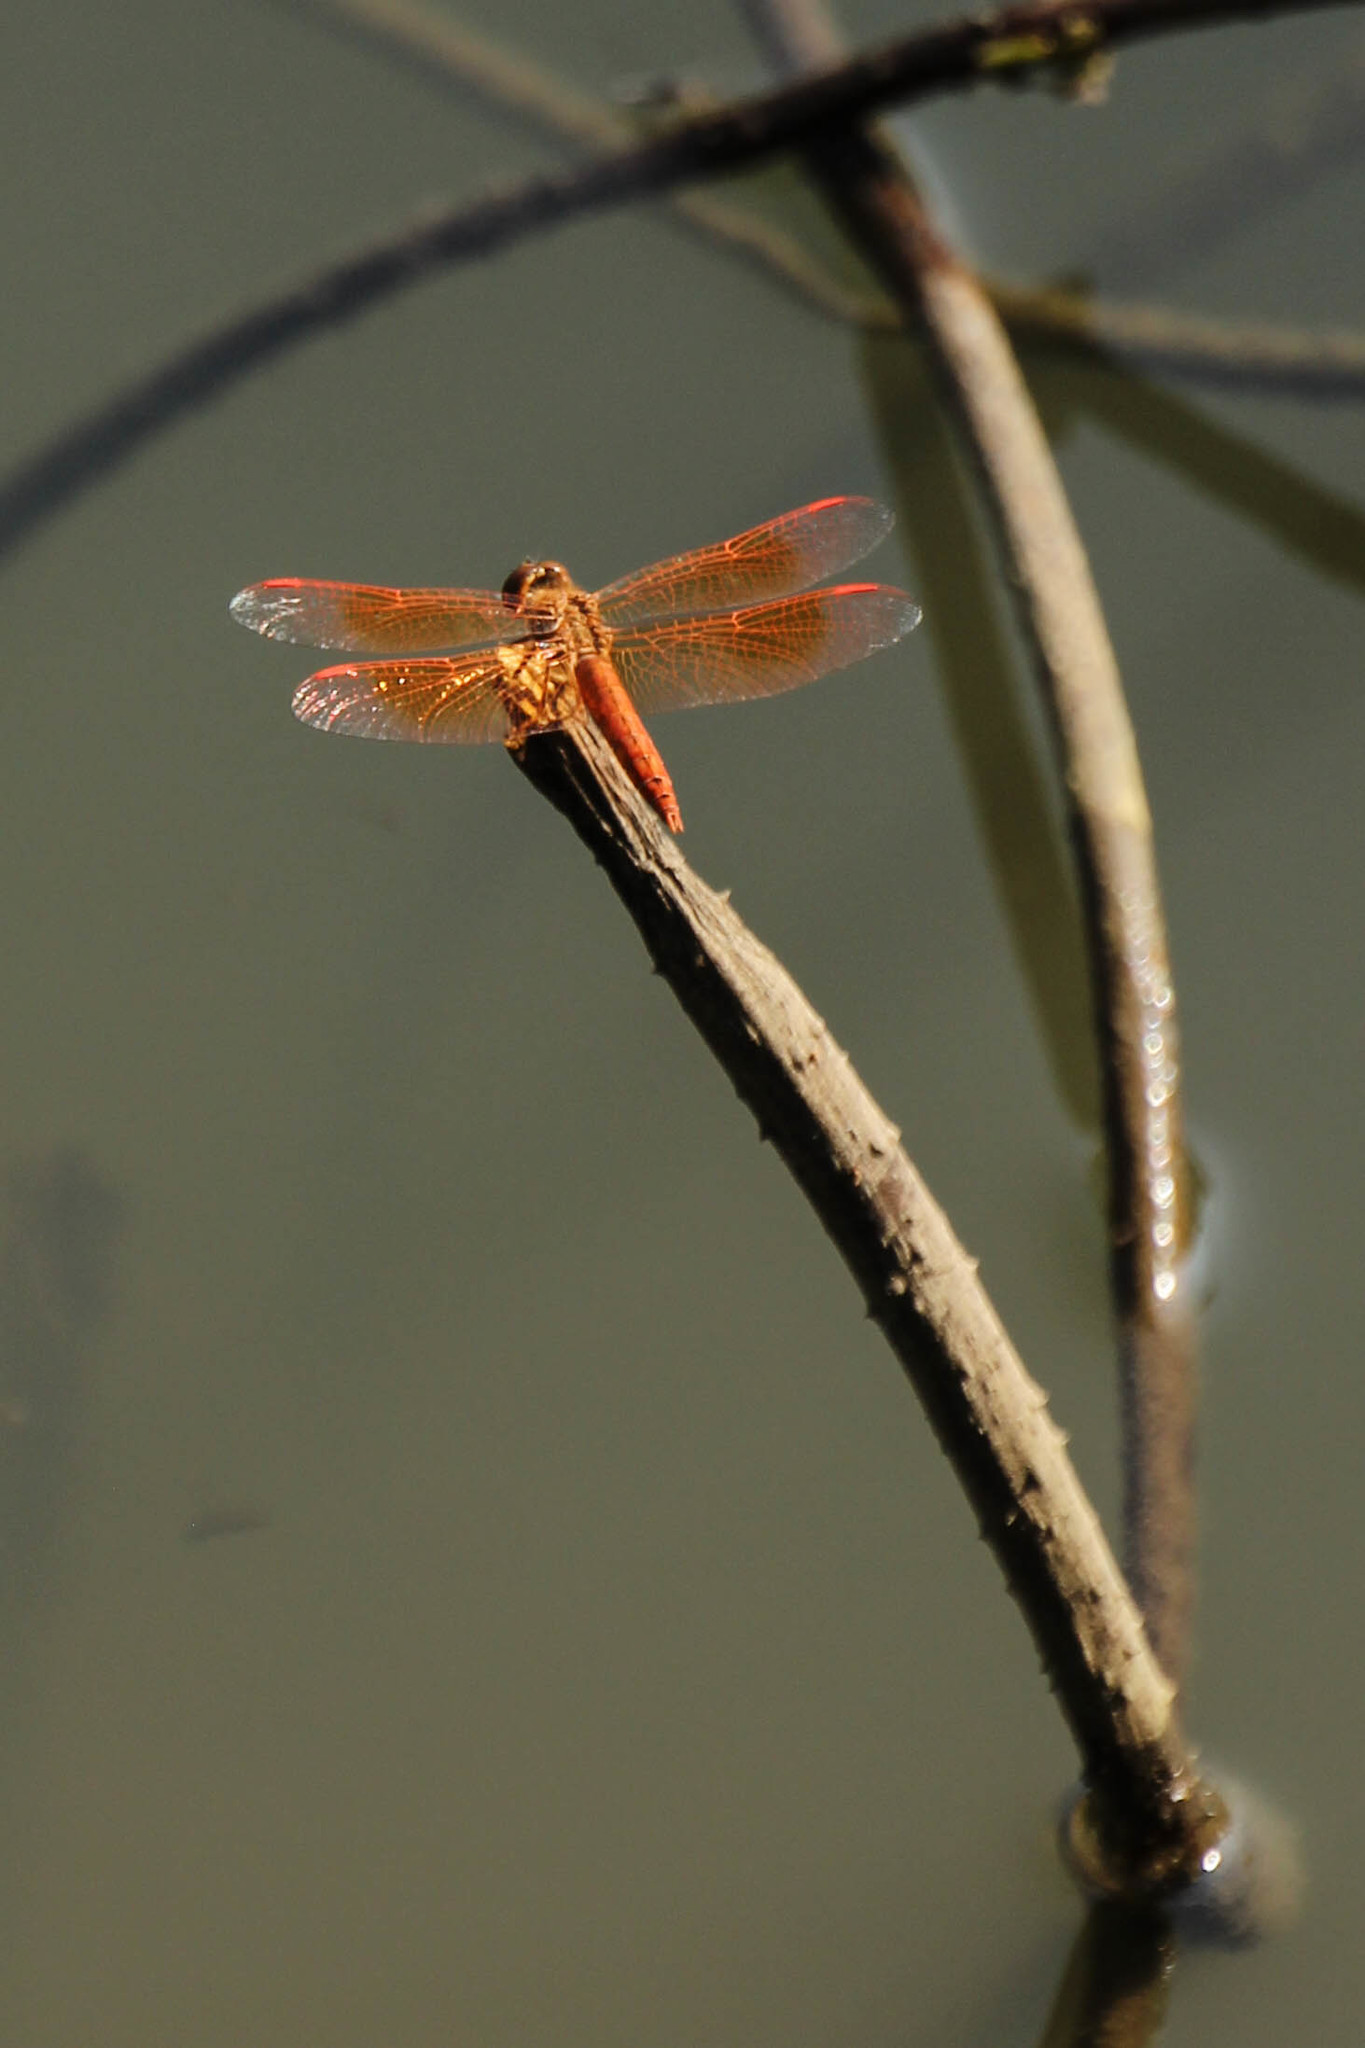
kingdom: Animalia
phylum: Arthropoda
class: Insecta
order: Odonata
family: Libellulidae
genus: Brachythemis
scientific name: Brachythemis contaminata
